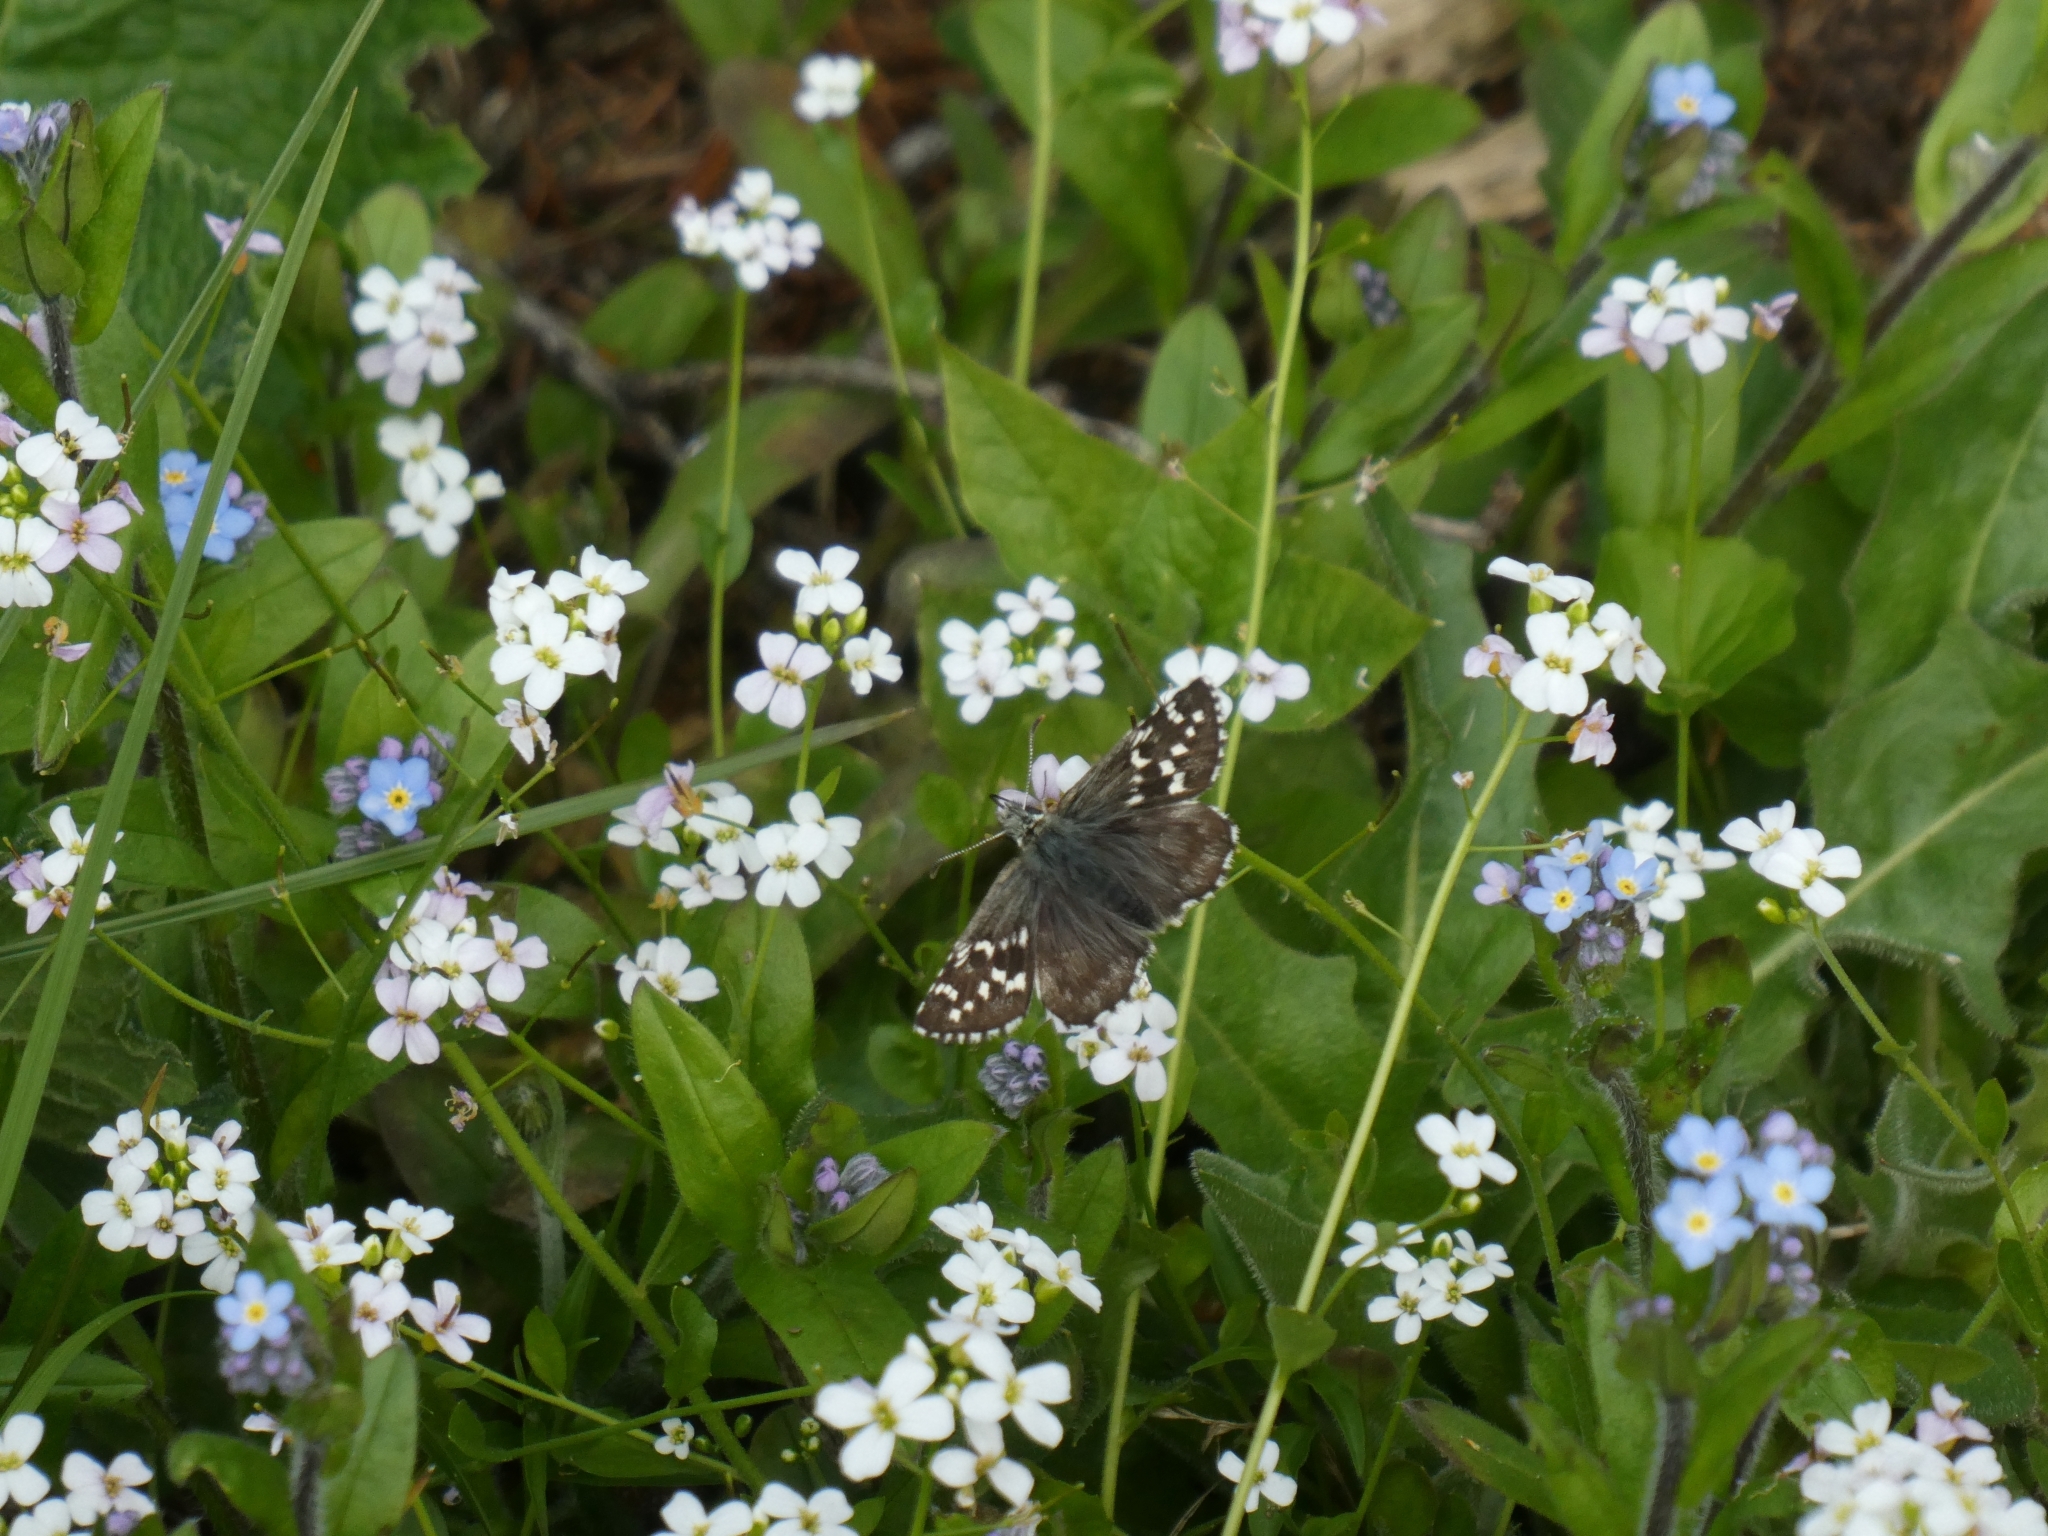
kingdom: Animalia
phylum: Arthropoda
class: Insecta
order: Lepidoptera
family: Hesperiidae
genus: Pyrgus
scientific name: Pyrgus andromedae
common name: Alpine grizzled skipper
